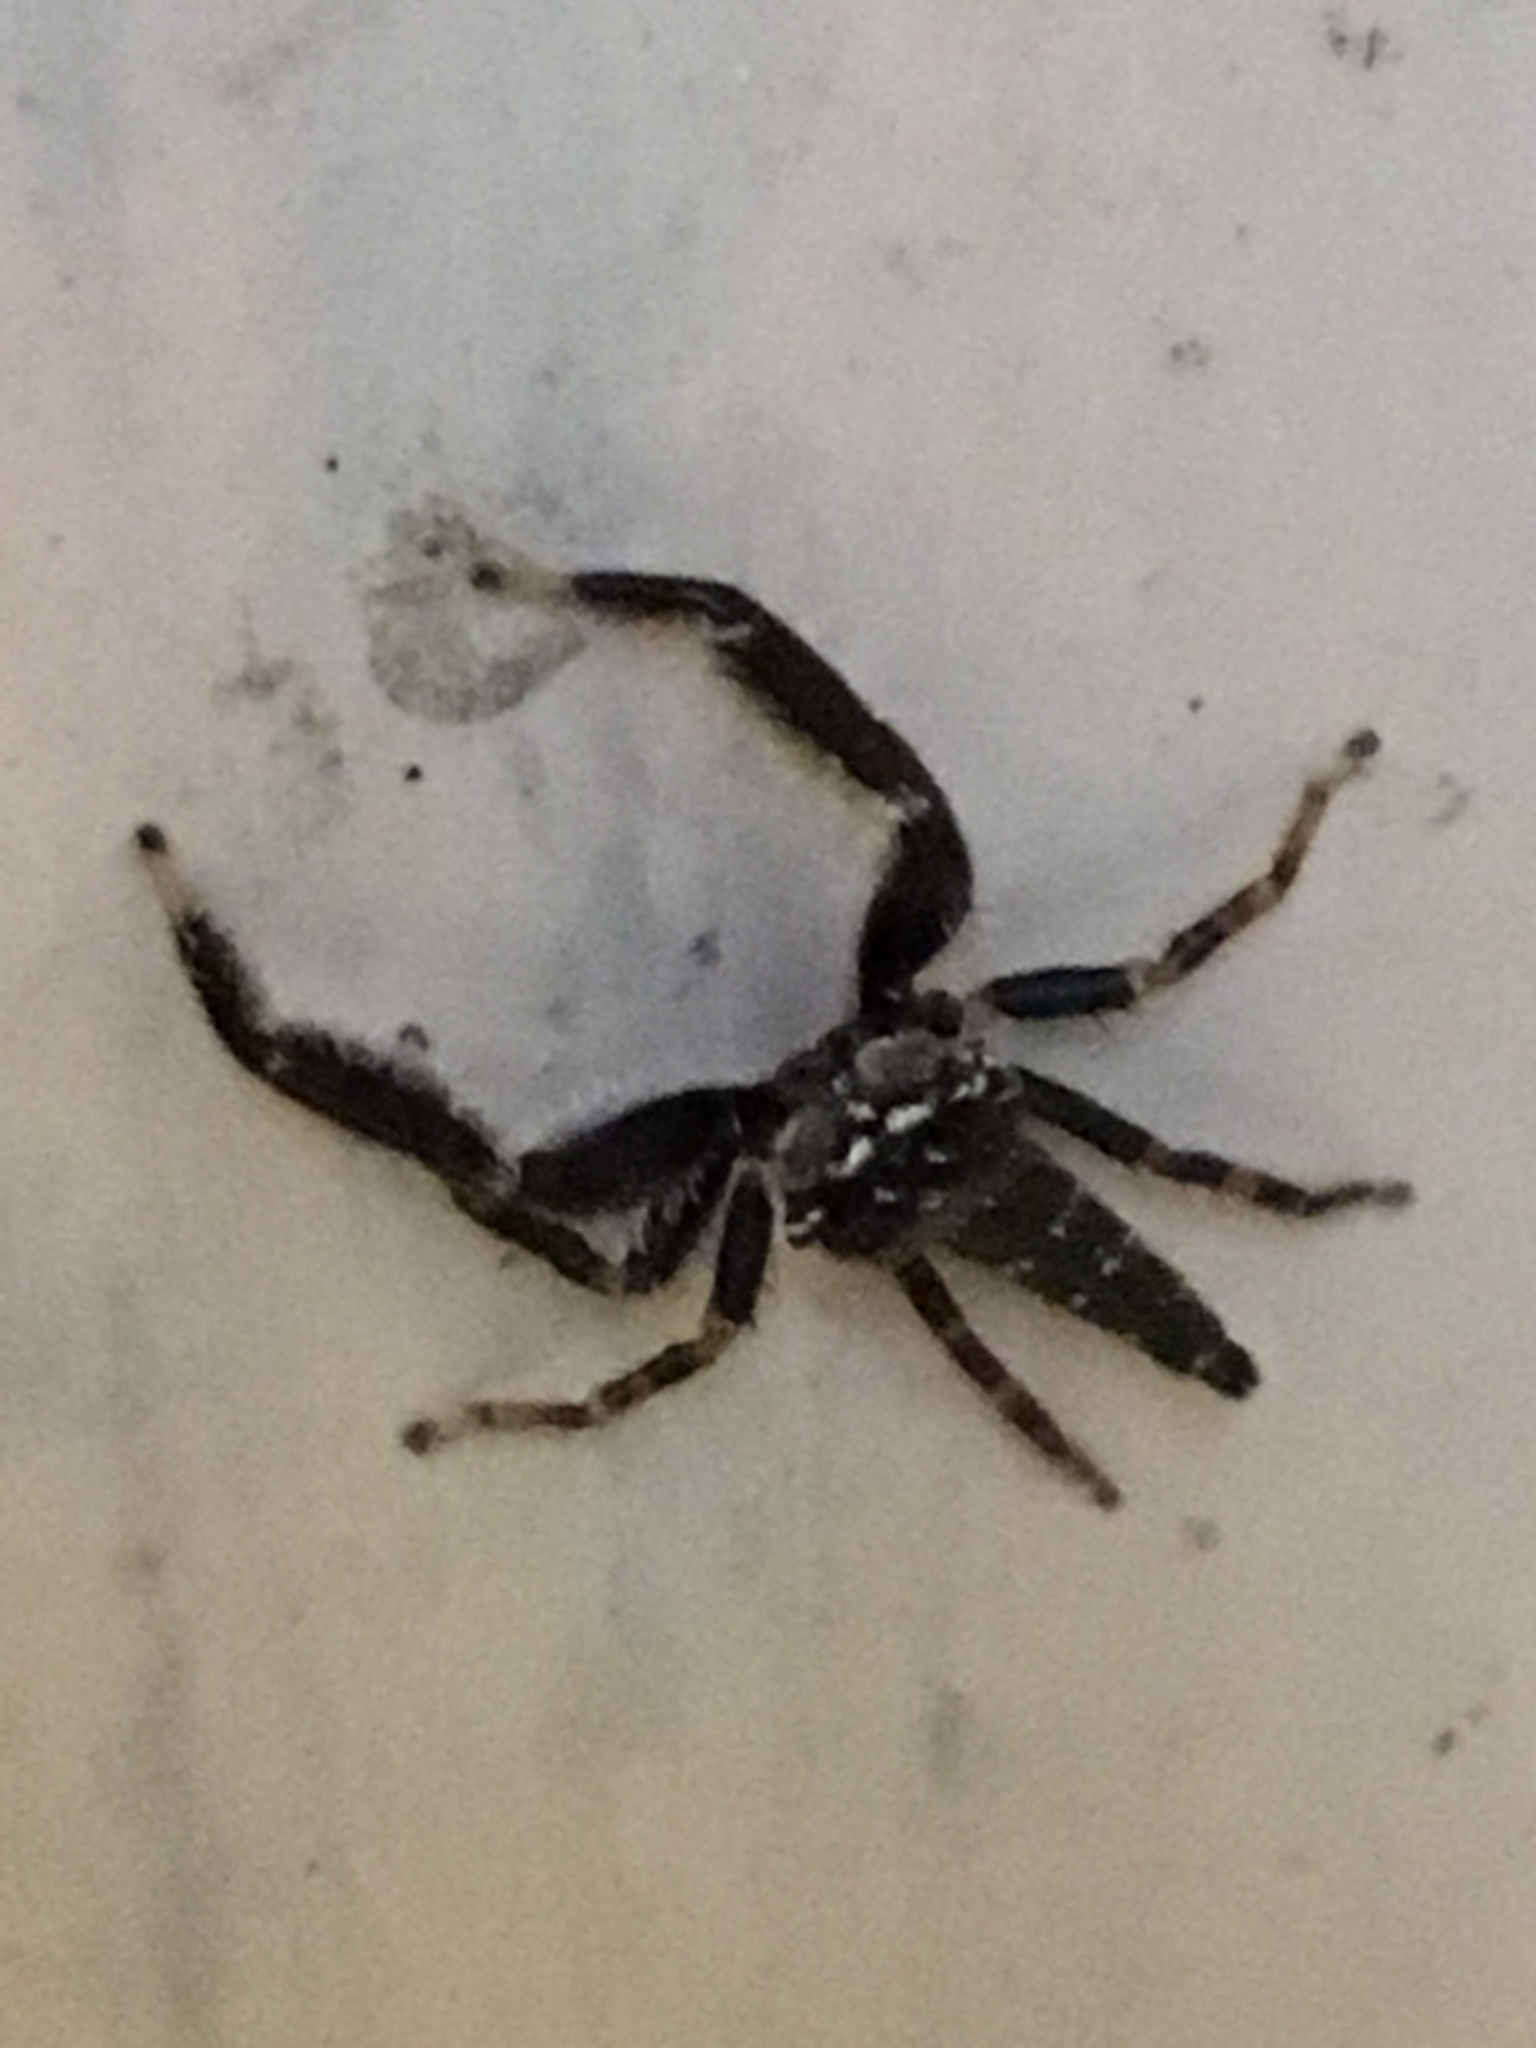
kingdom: Animalia
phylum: Arthropoda
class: Arachnida
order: Araneae
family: Salticidae
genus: Bavia
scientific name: Bavia sexpunctata
